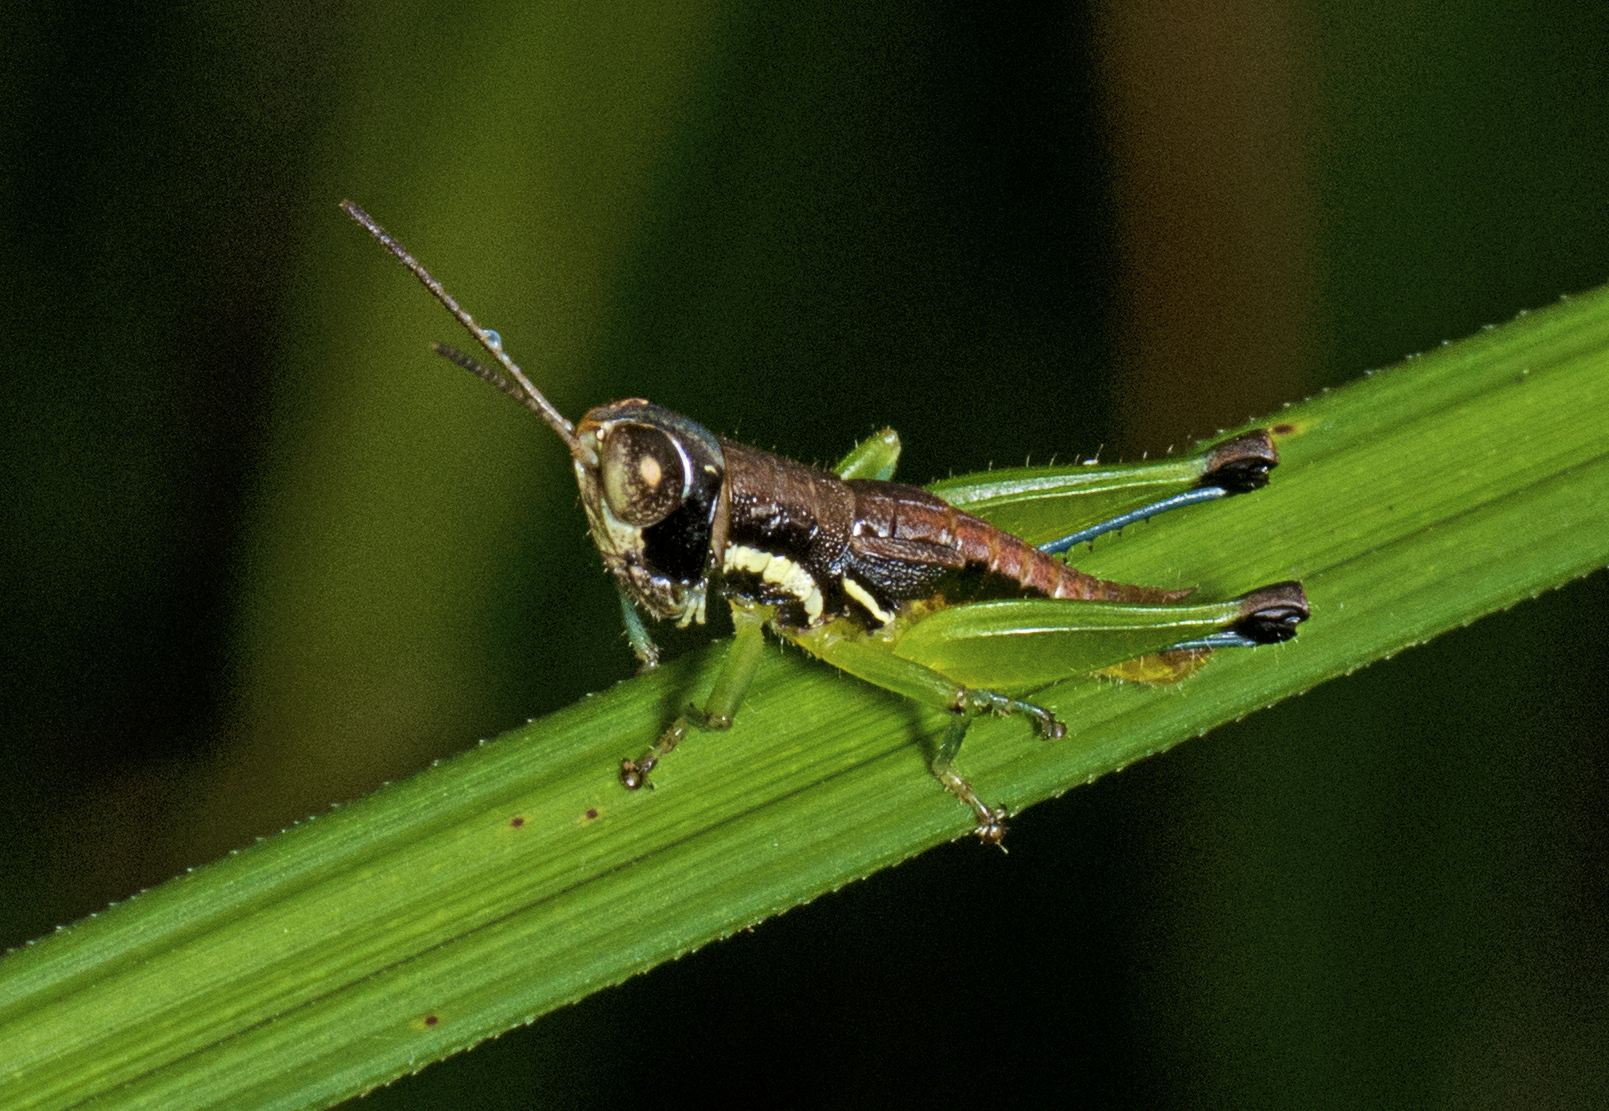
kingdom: Animalia
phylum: Arthropoda
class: Insecta
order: Orthoptera
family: Acrididae
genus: Methiolopsis
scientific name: Methiolopsis geniculata
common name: Little black-knees
